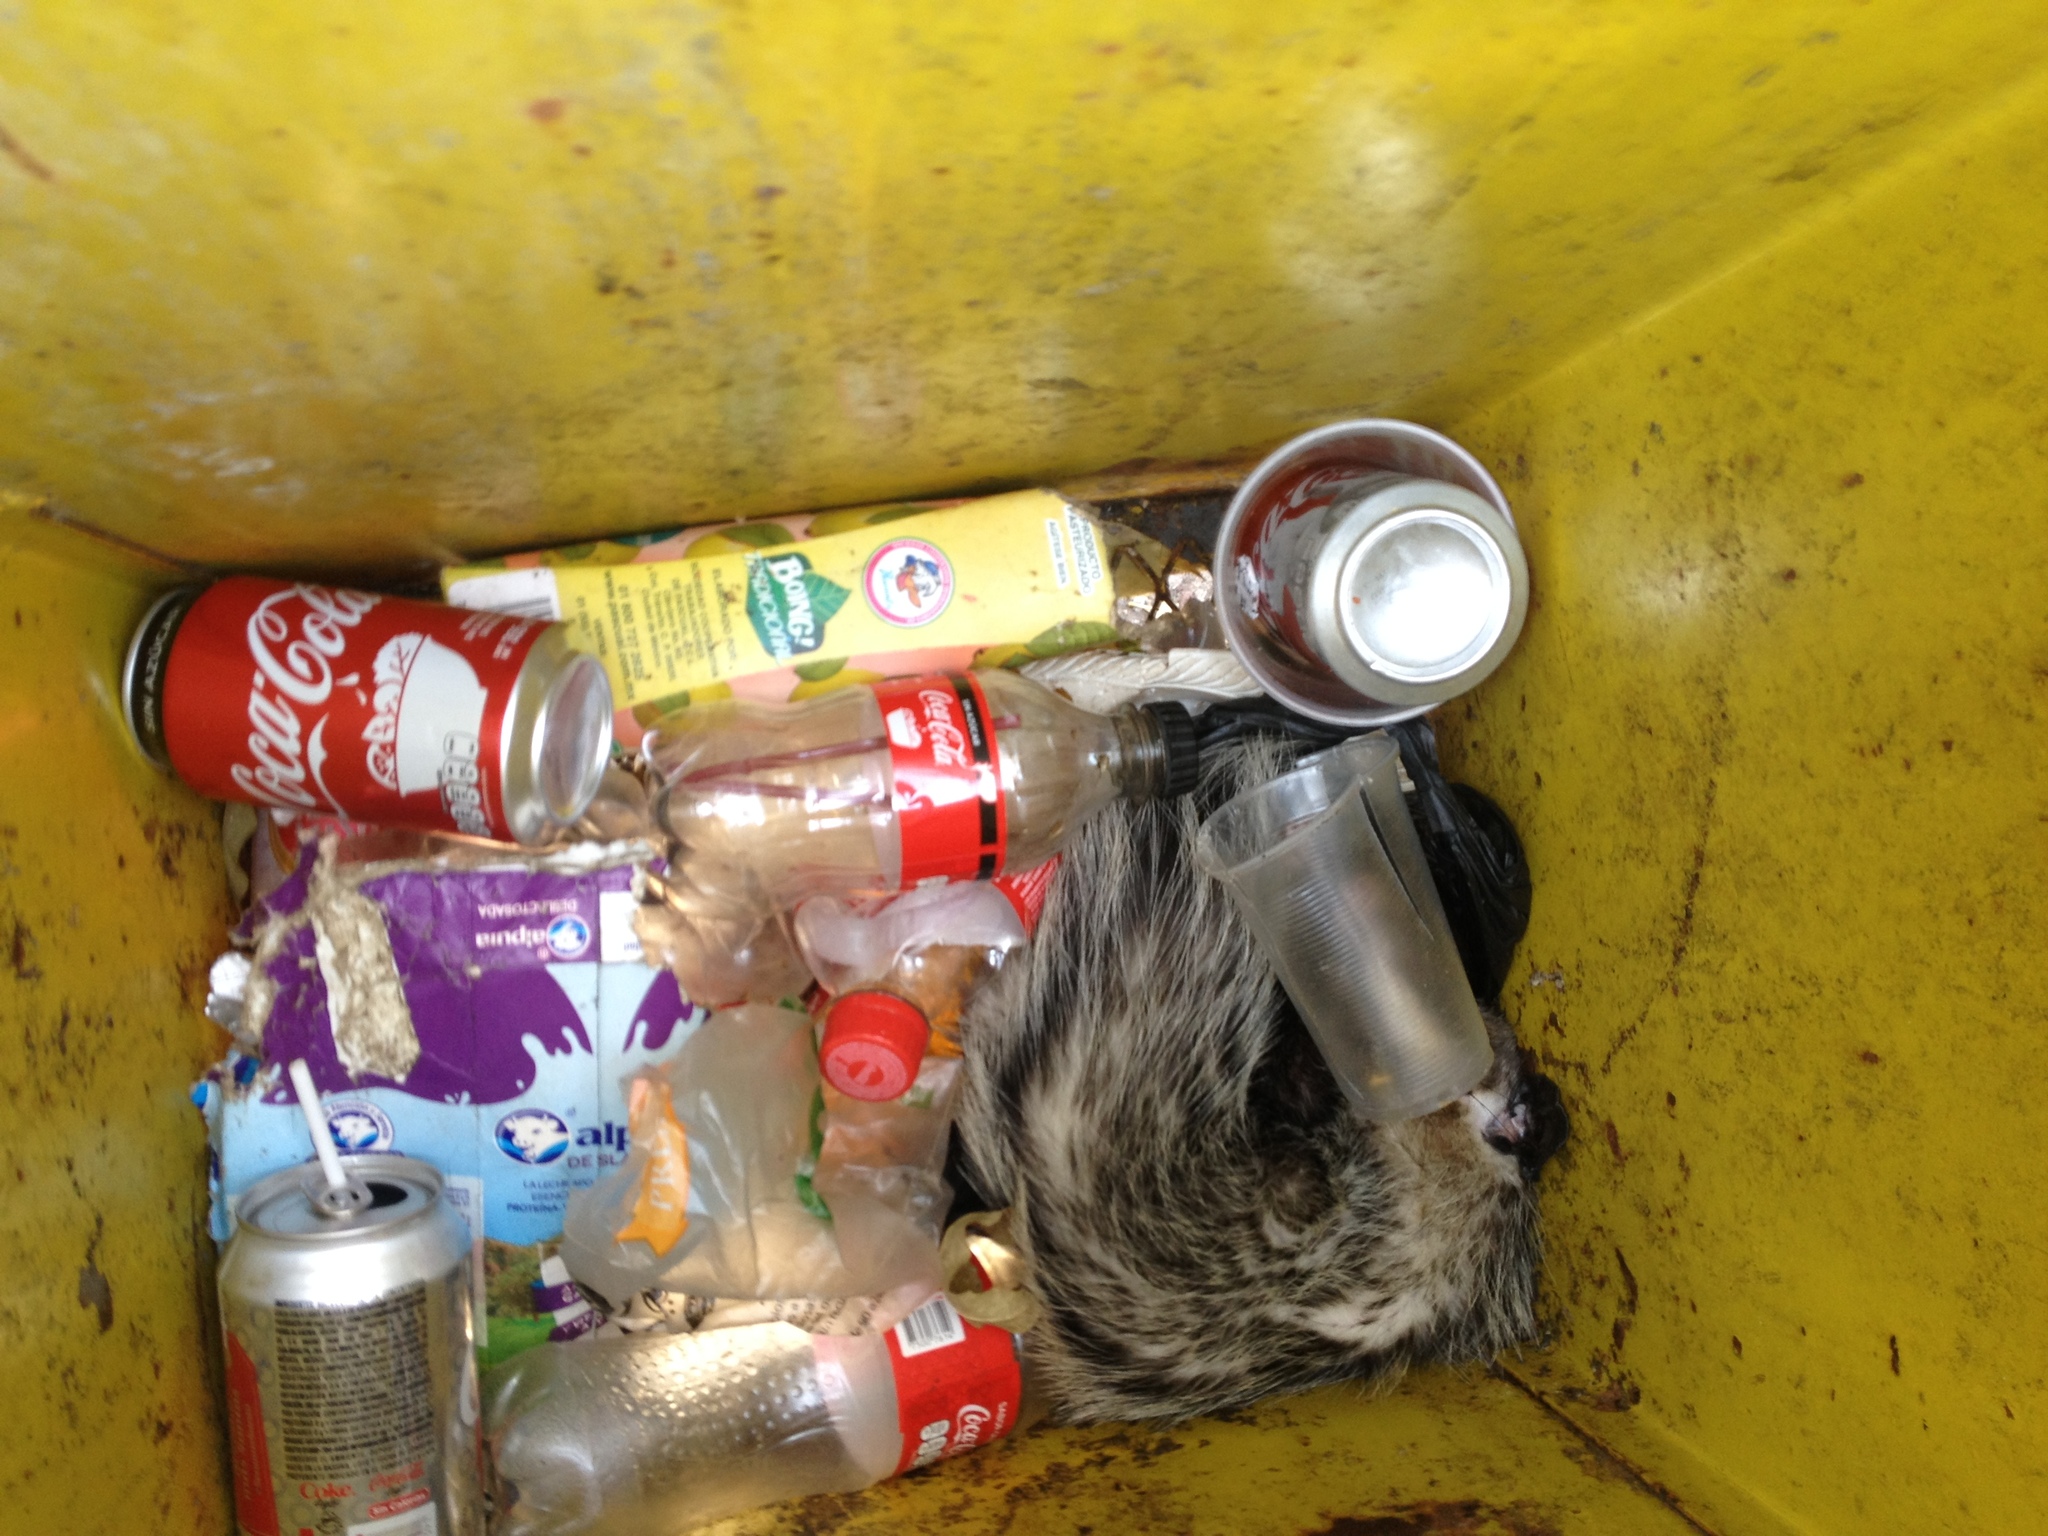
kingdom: Animalia
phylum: Chordata
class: Mammalia
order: Didelphimorphia
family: Didelphidae
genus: Didelphis
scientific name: Didelphis virginiana
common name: Virginia opossum
